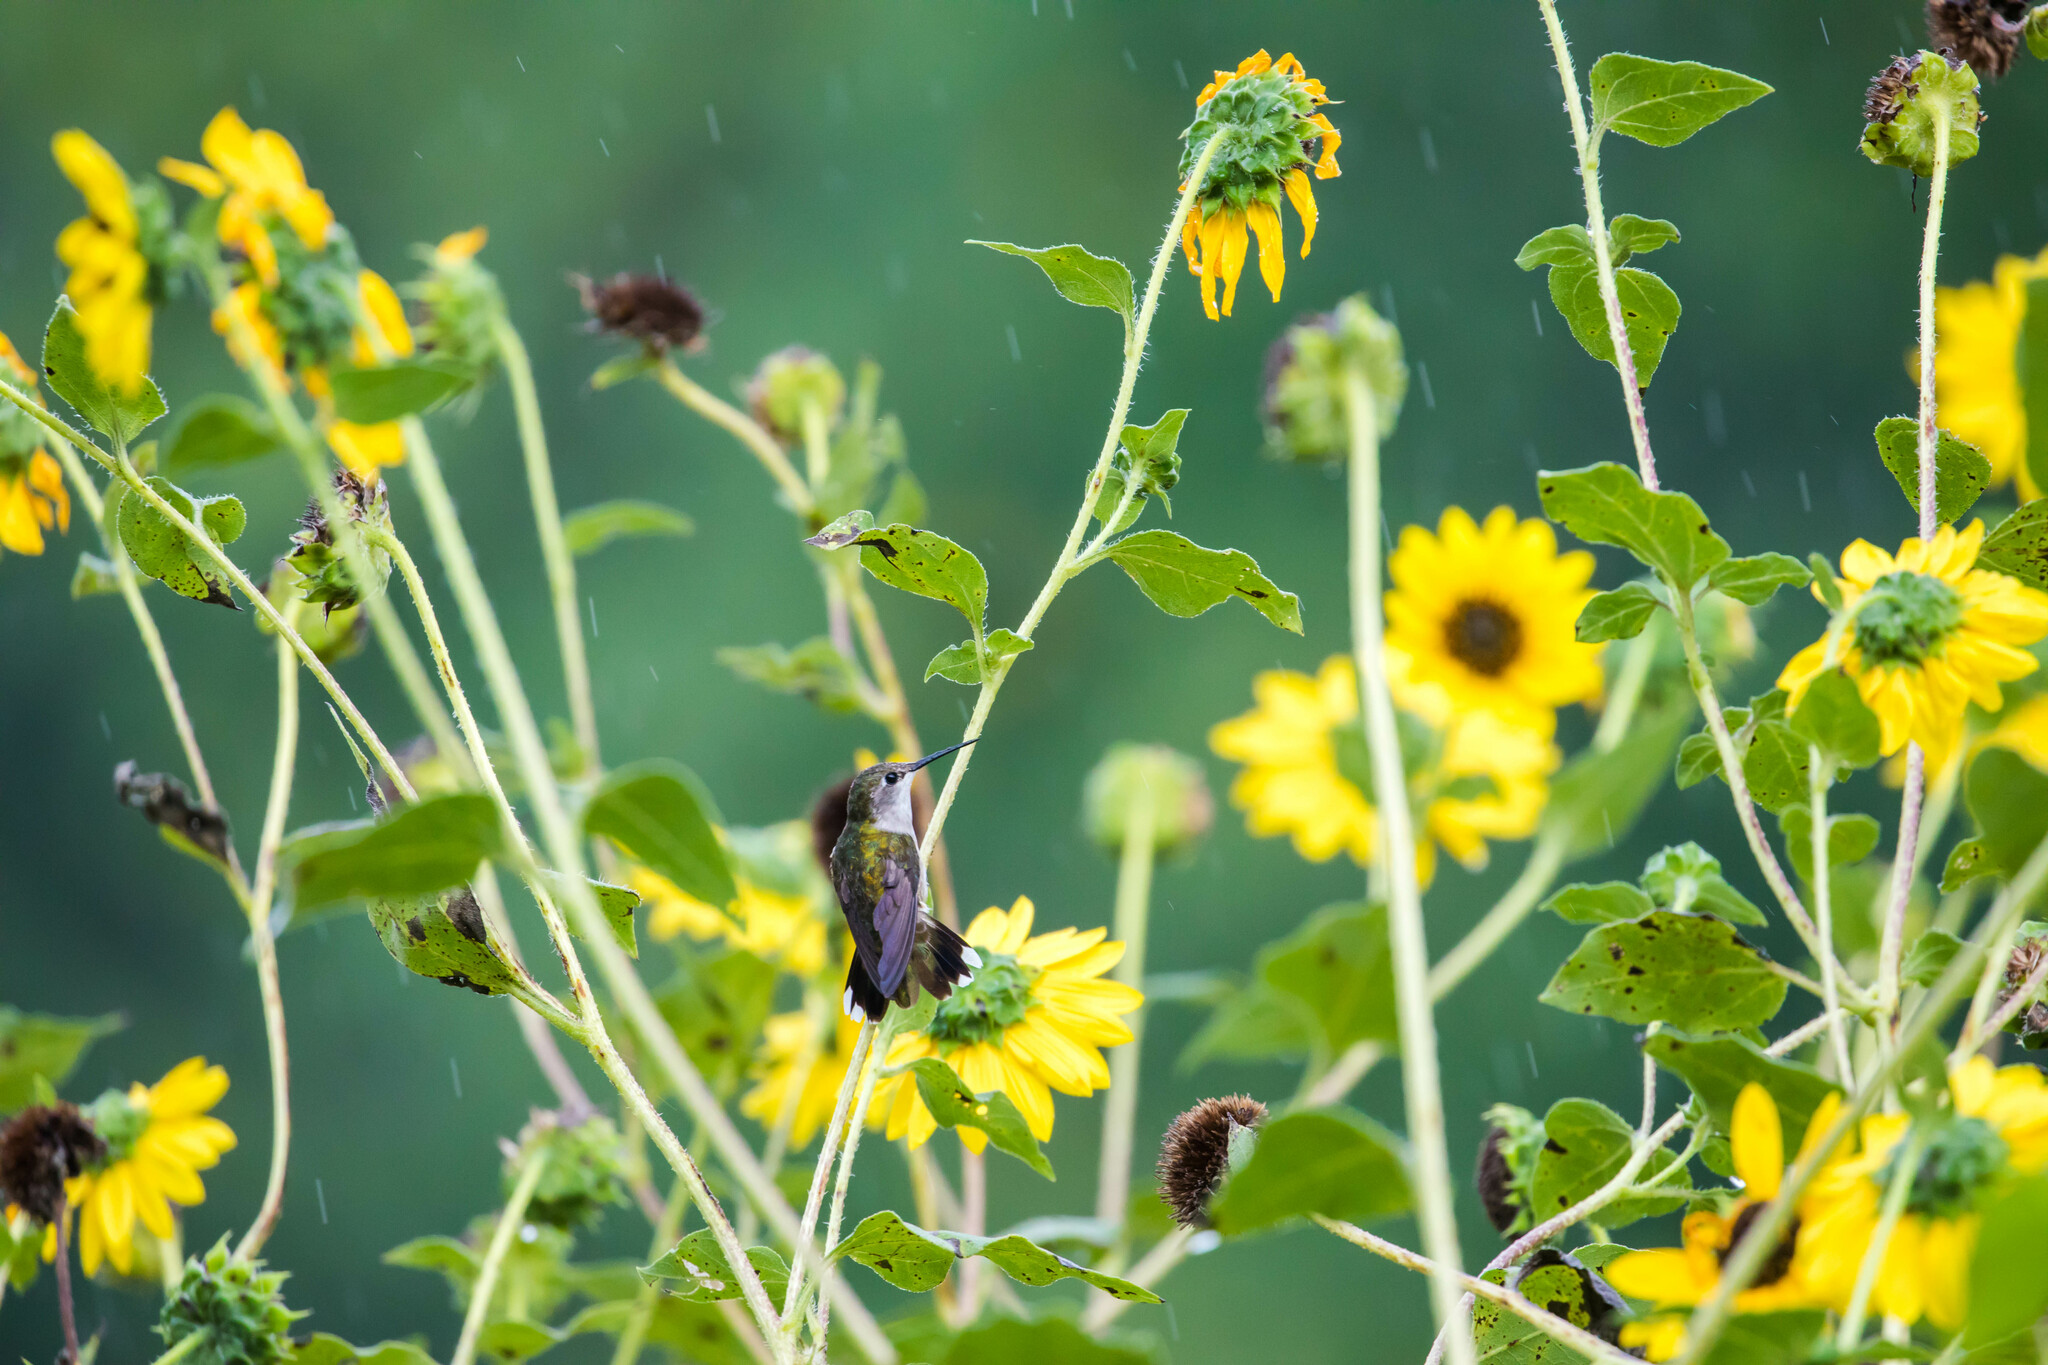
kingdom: Animalia
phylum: Chordata
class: Aves
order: Apodiformes
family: Trochilidae
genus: Archilochus
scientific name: Archilochus colubris
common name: Ruby-throated hummingbird
